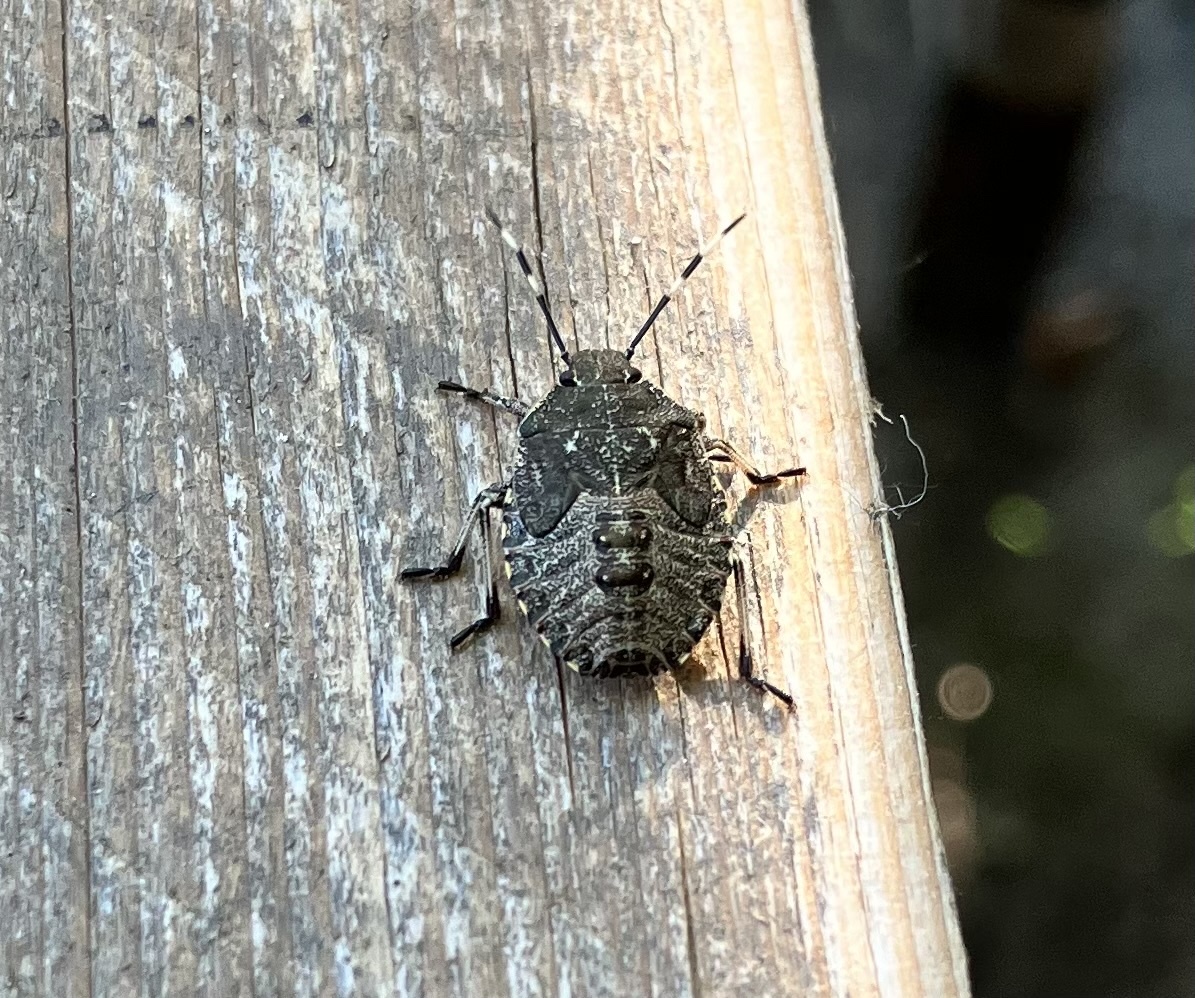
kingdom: Animalia
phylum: Arthropoda
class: Insecta
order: Hemiptera
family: Pentatomidae
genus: Rhaphigaster
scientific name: Rhaphigaster nebulosa
